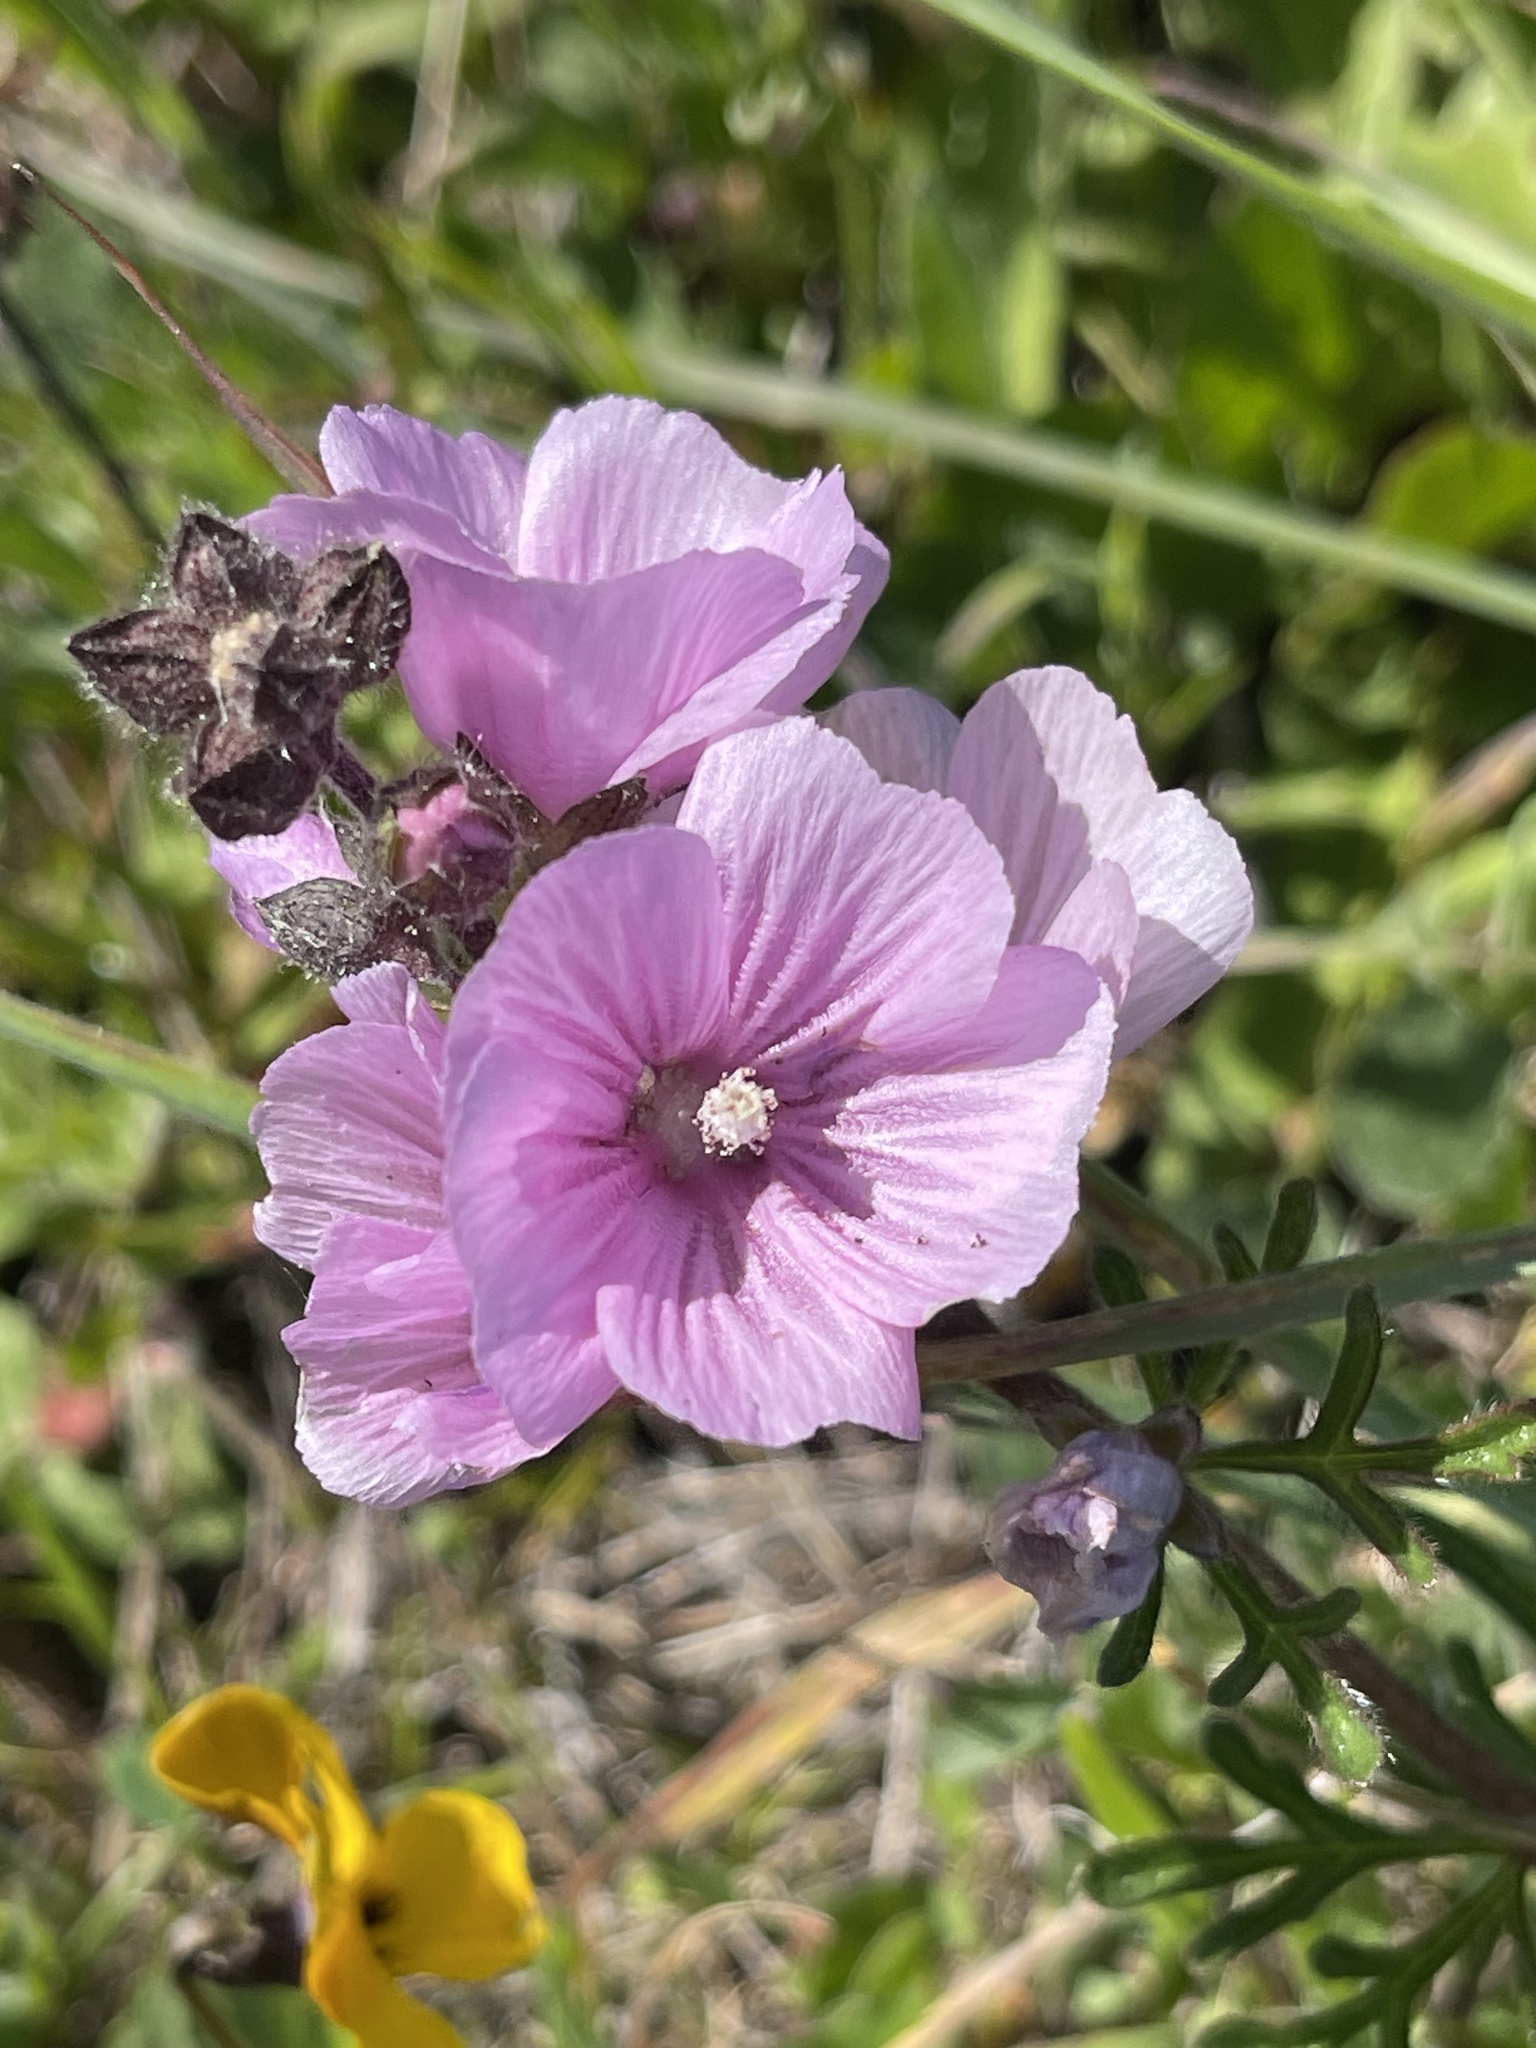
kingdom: Plantae
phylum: Tracheophyta
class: Magnoliopsida
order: Malvales
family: Malvaceae
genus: Sidalcea
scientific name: Sidalcea malviflora
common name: Greek mallow
